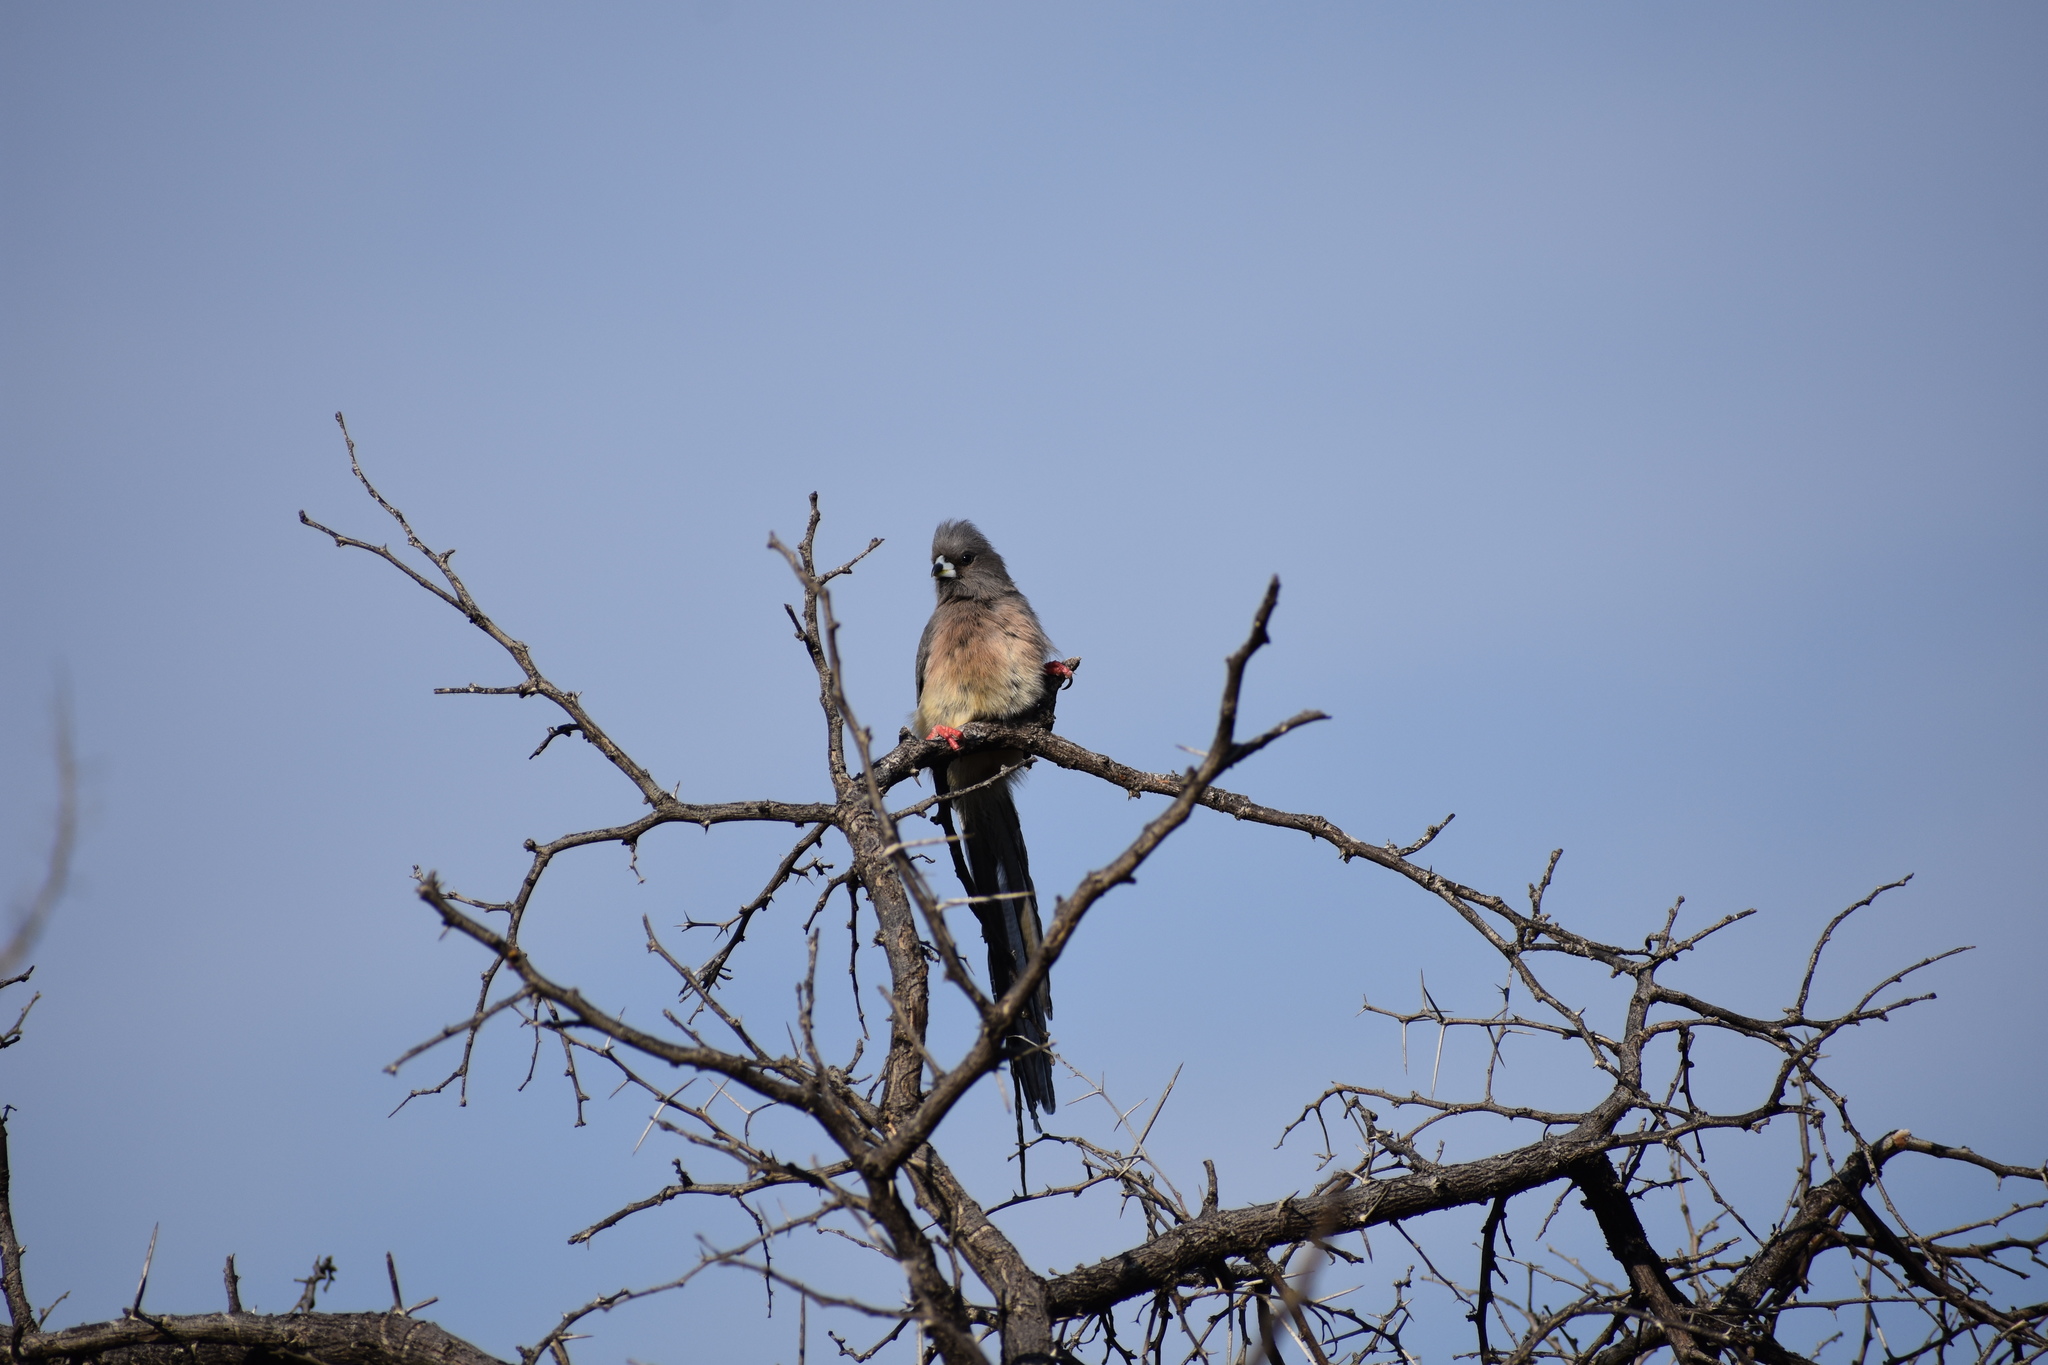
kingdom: Animalia
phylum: Chordata
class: Aves
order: Coliiformes
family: Coliidae
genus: Colius
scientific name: Colius colius
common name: White-backed mousebird
